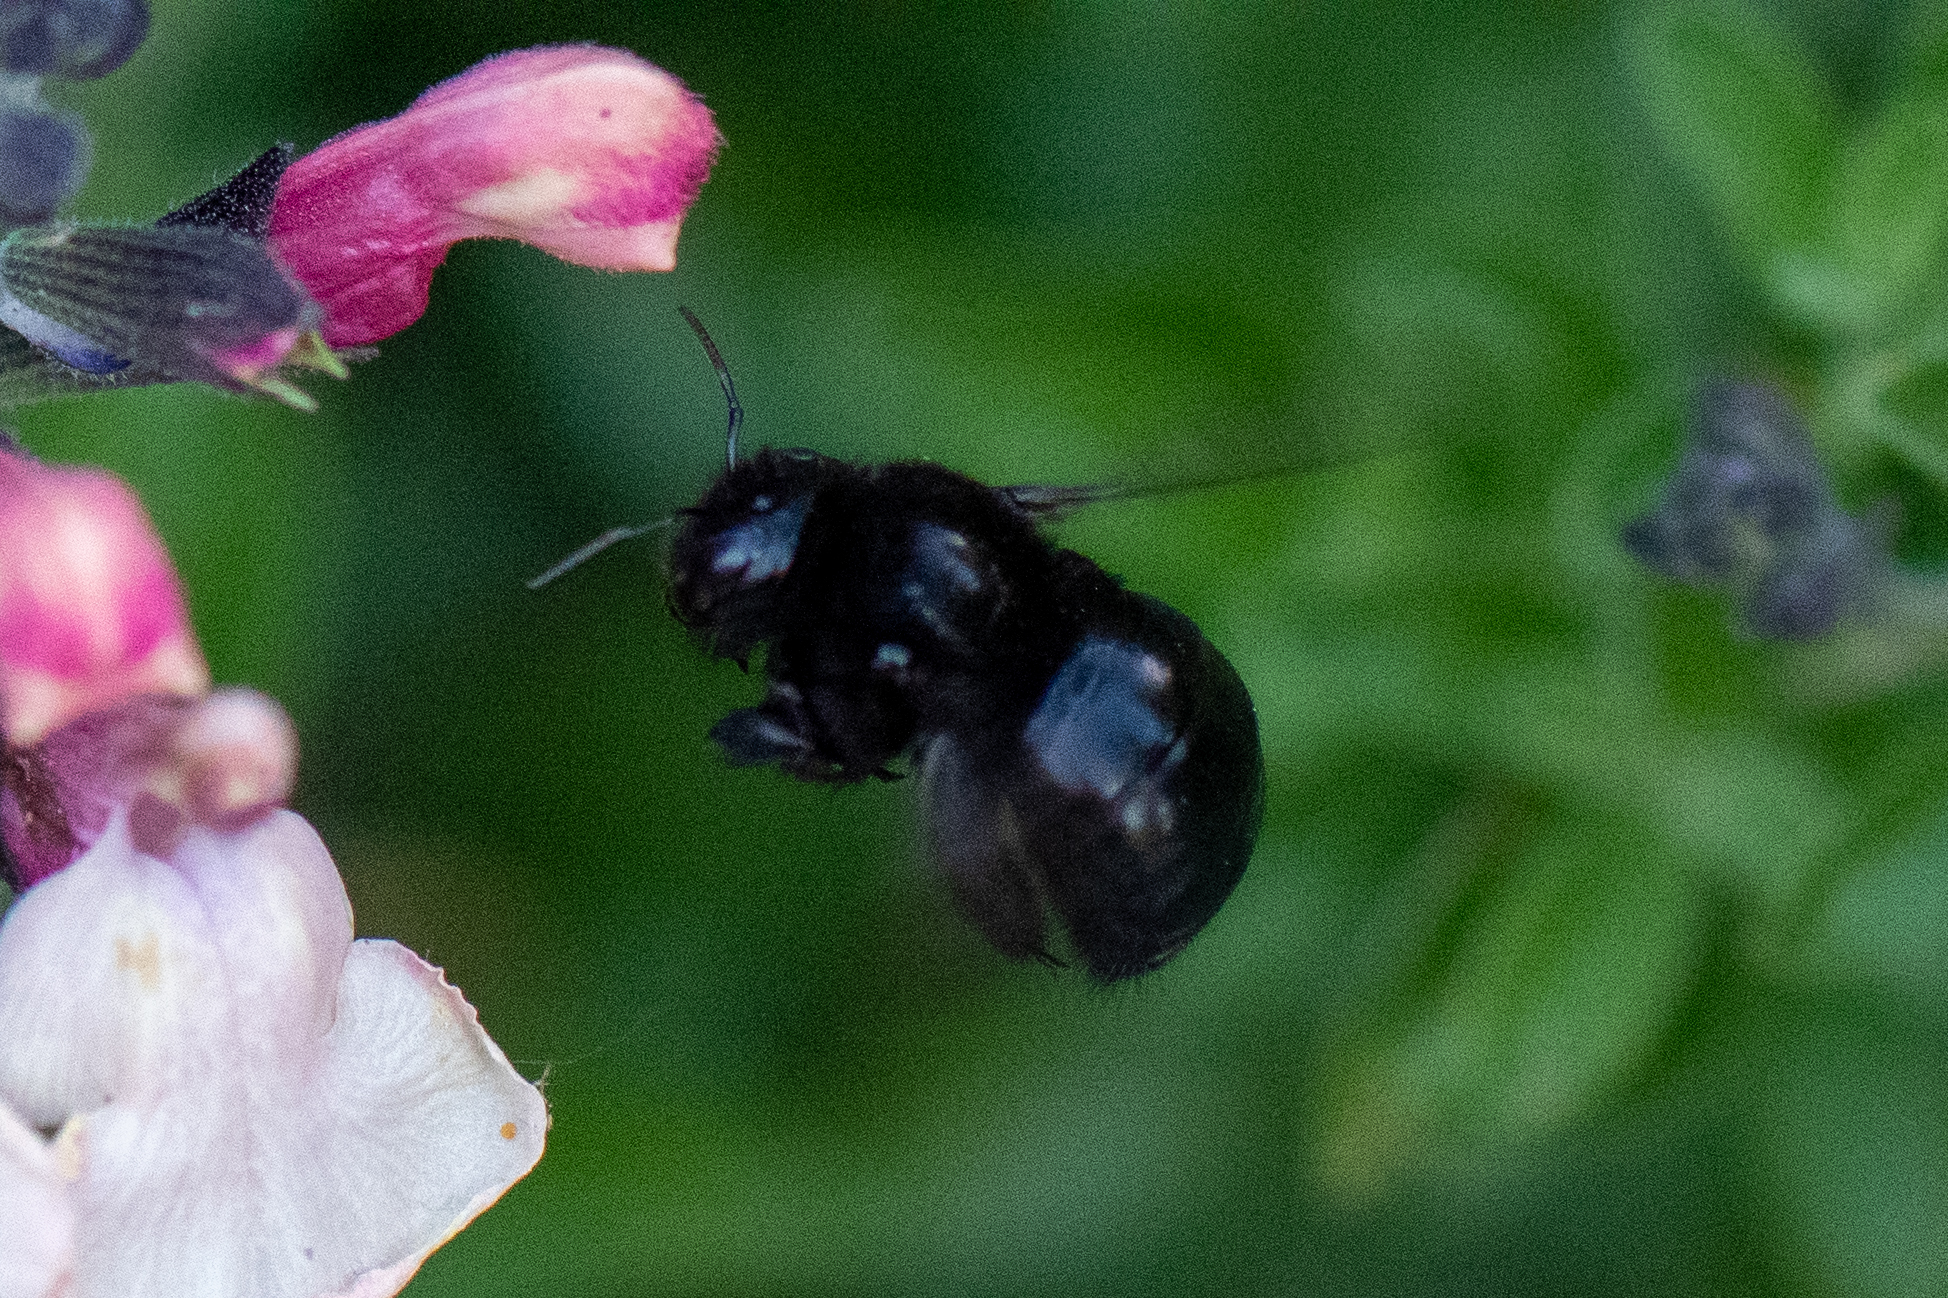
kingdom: Animalia
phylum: Arthropoda
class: Insecta
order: Hymenoptera
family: Apidae
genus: Xylocopa
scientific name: Xylocopa tabaniformis
